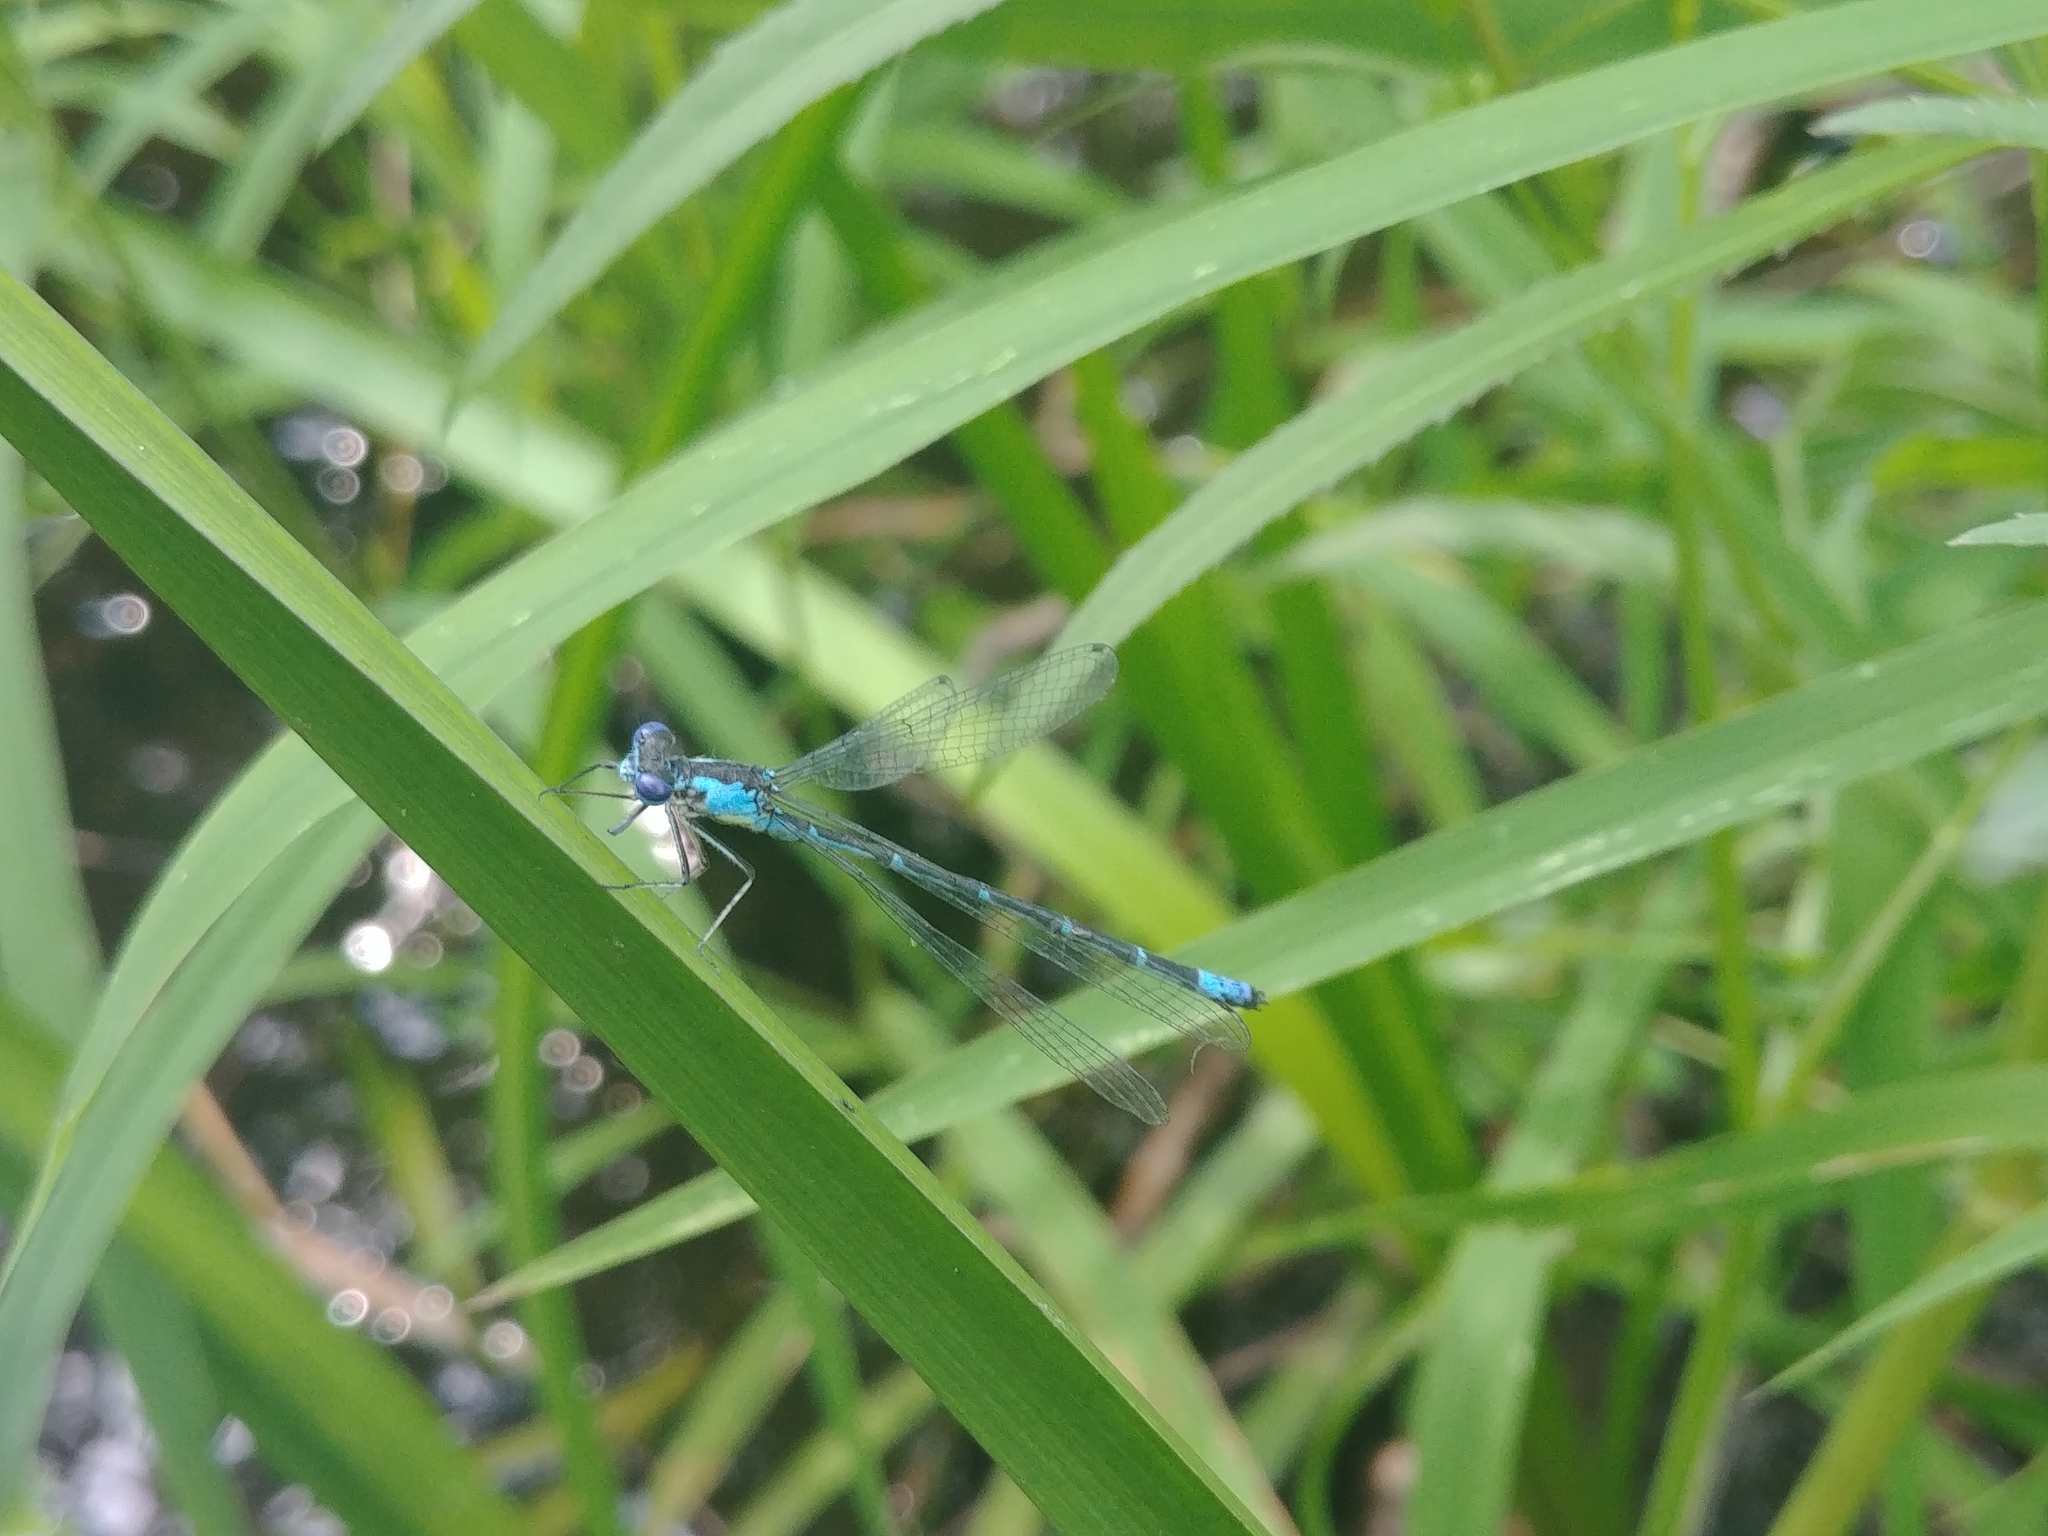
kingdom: Animalia
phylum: Arthropoda
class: Insecta
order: Odonata
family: Coenagrionidae
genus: Chromagrion
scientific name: Chromagrion conditum
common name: Aurora damsel
